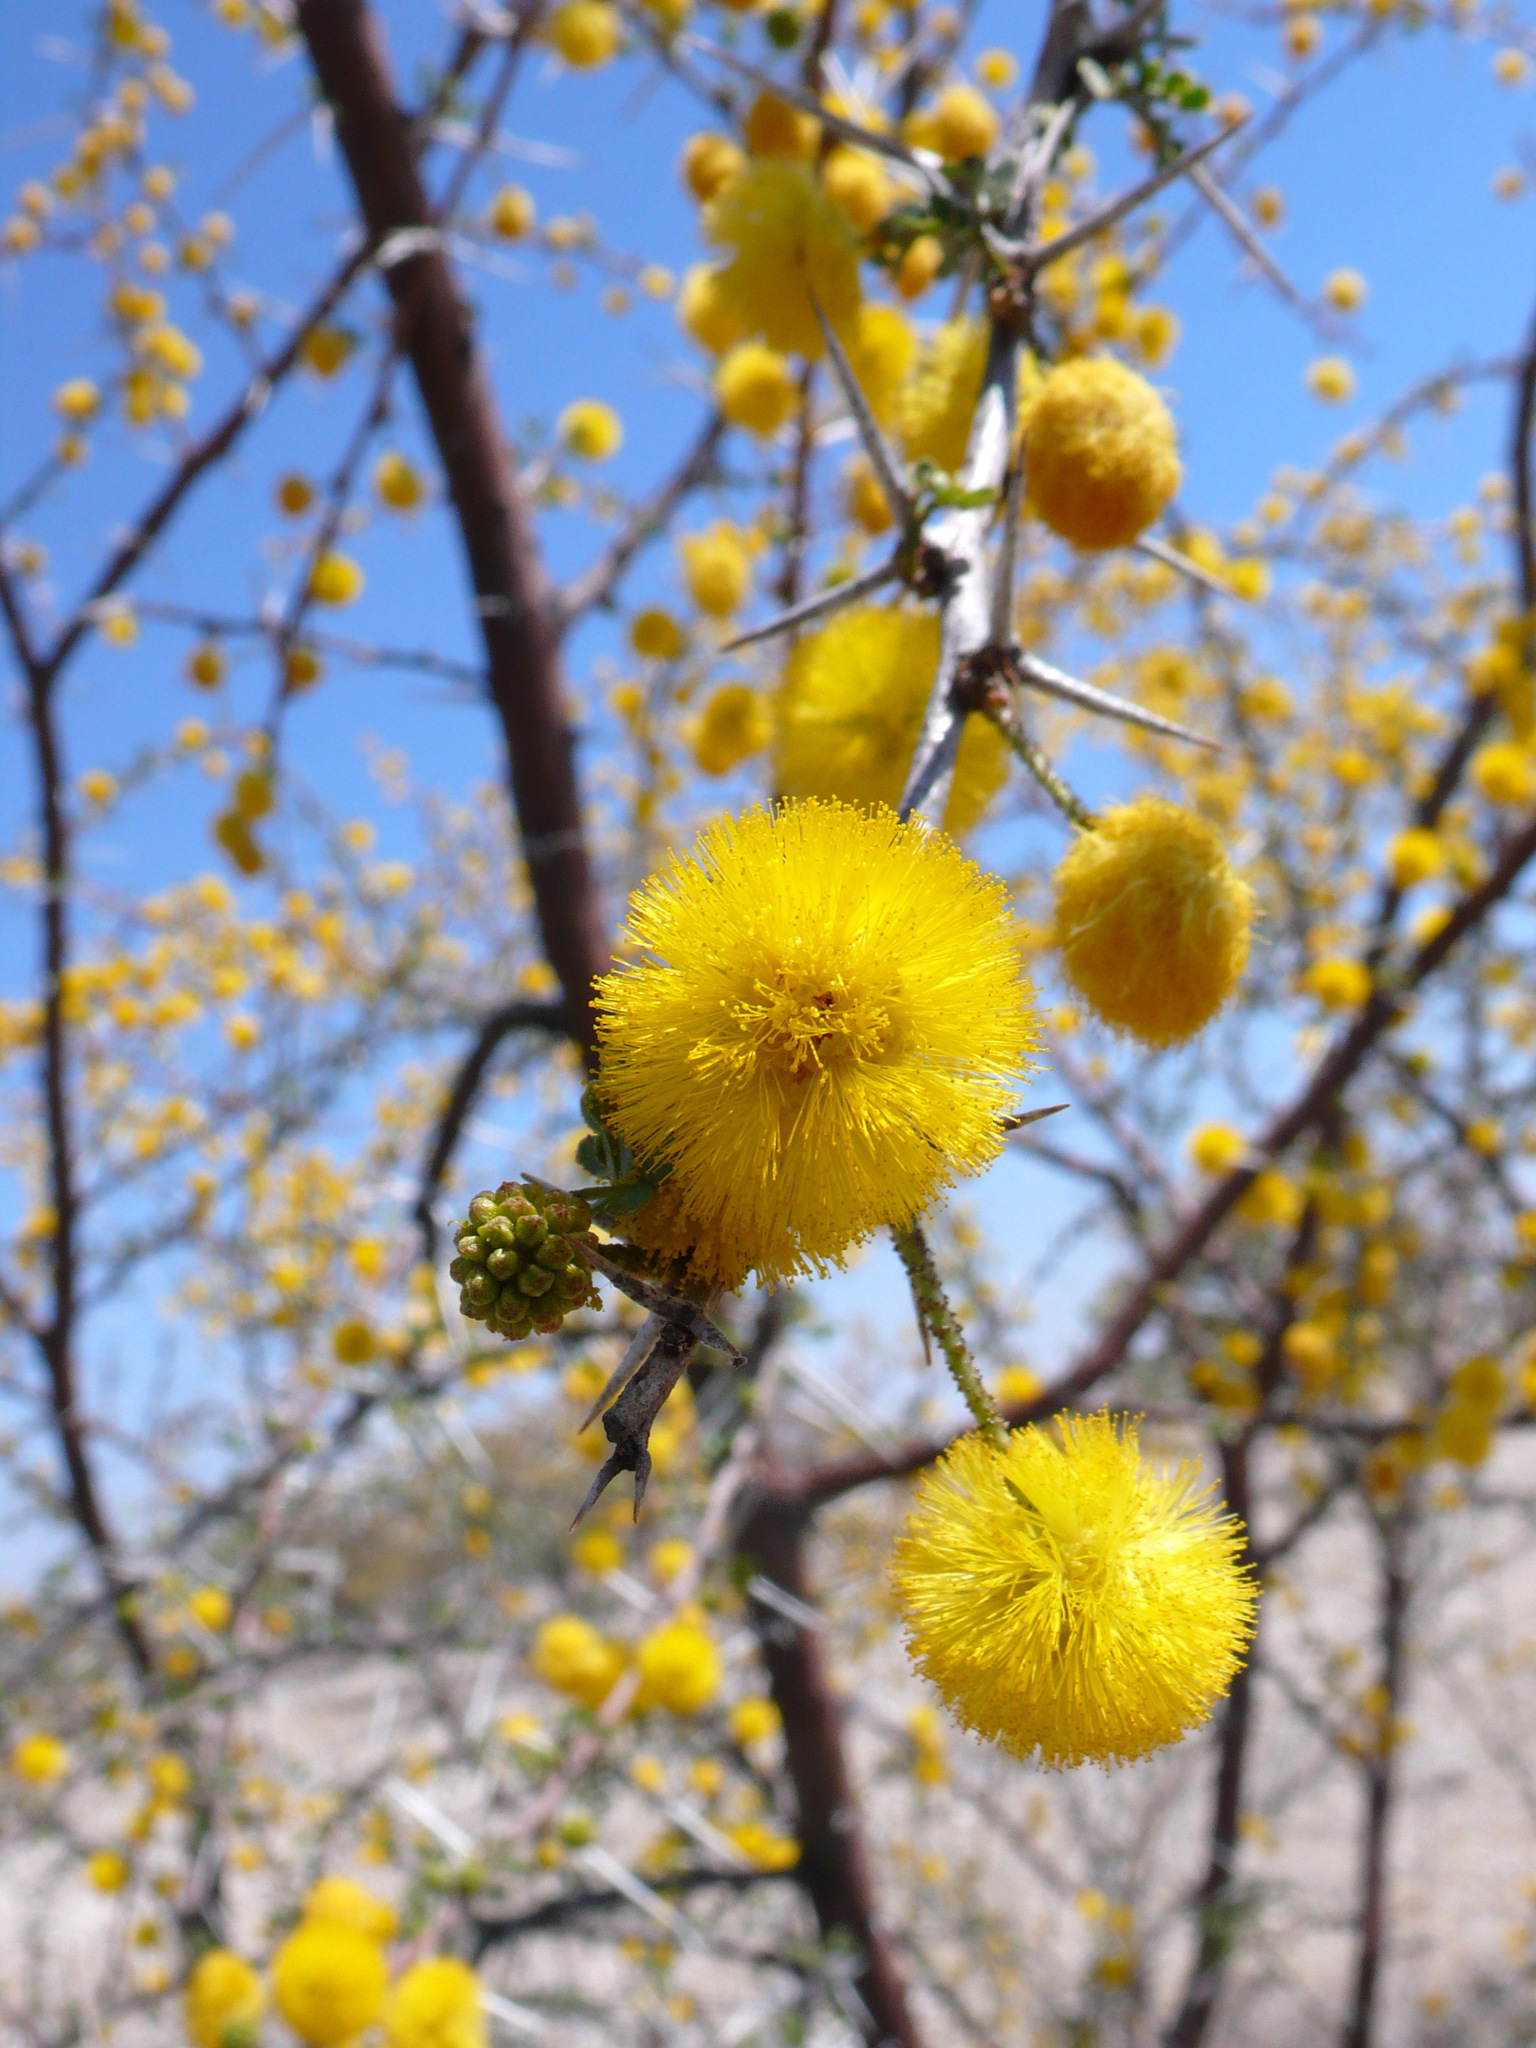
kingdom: Plantae
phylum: Tracheophyta
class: Magnoliopsida
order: Fabales
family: Fabaceae
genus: Vachellia
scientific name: Vachellia nebrownii
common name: Water acacia
